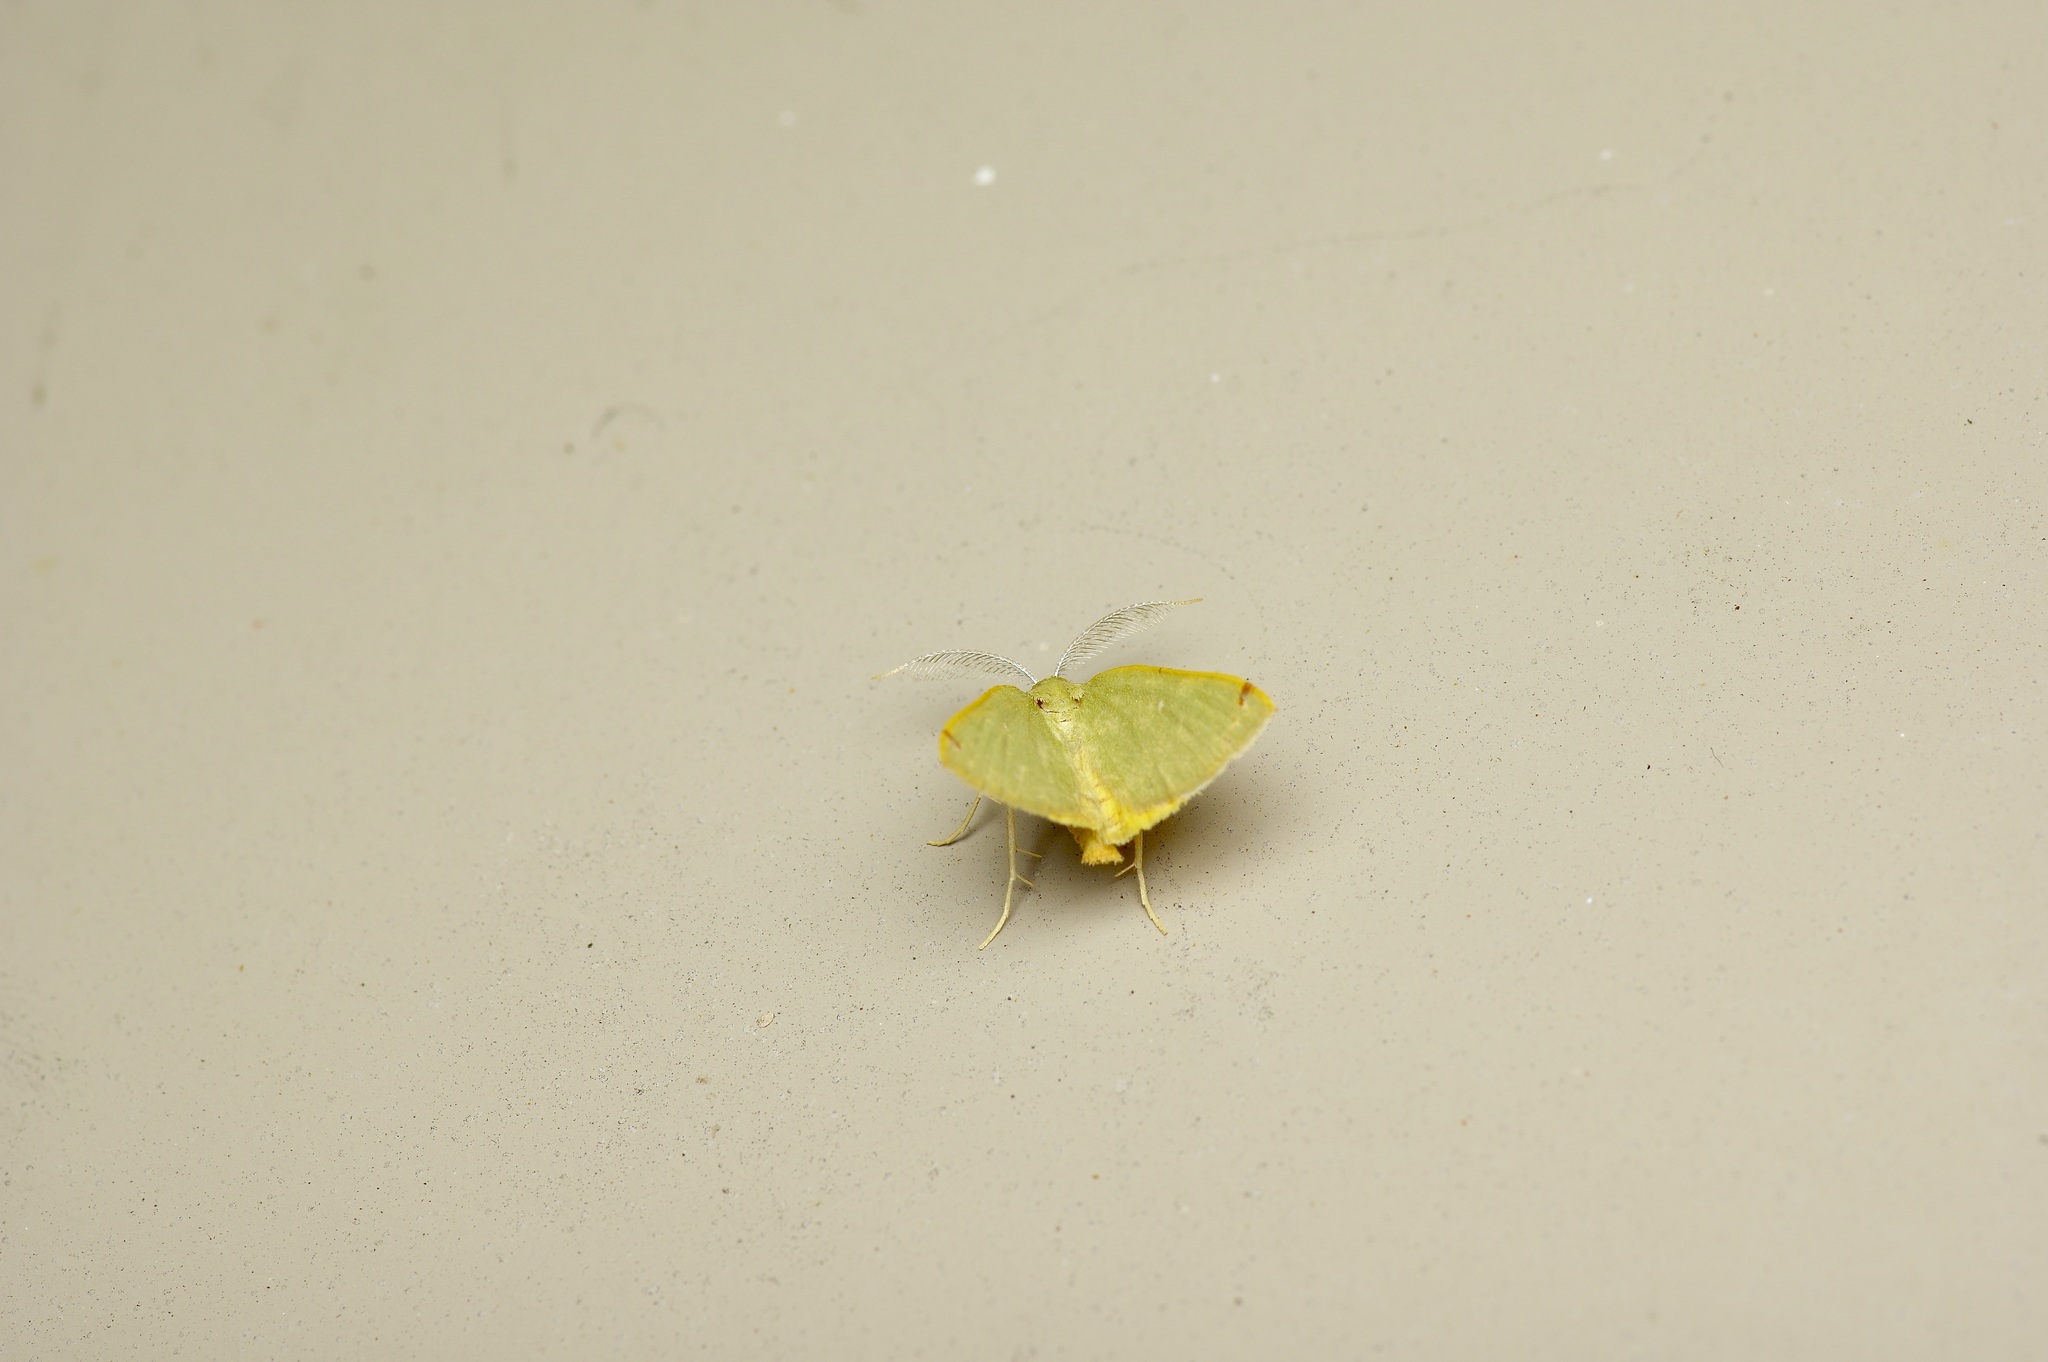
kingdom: Animalia
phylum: Arthropoda
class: Insecta
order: Lepidoptera
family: Geometridae
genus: Chloraspilates
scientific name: Chloraspilates bicoloraria
